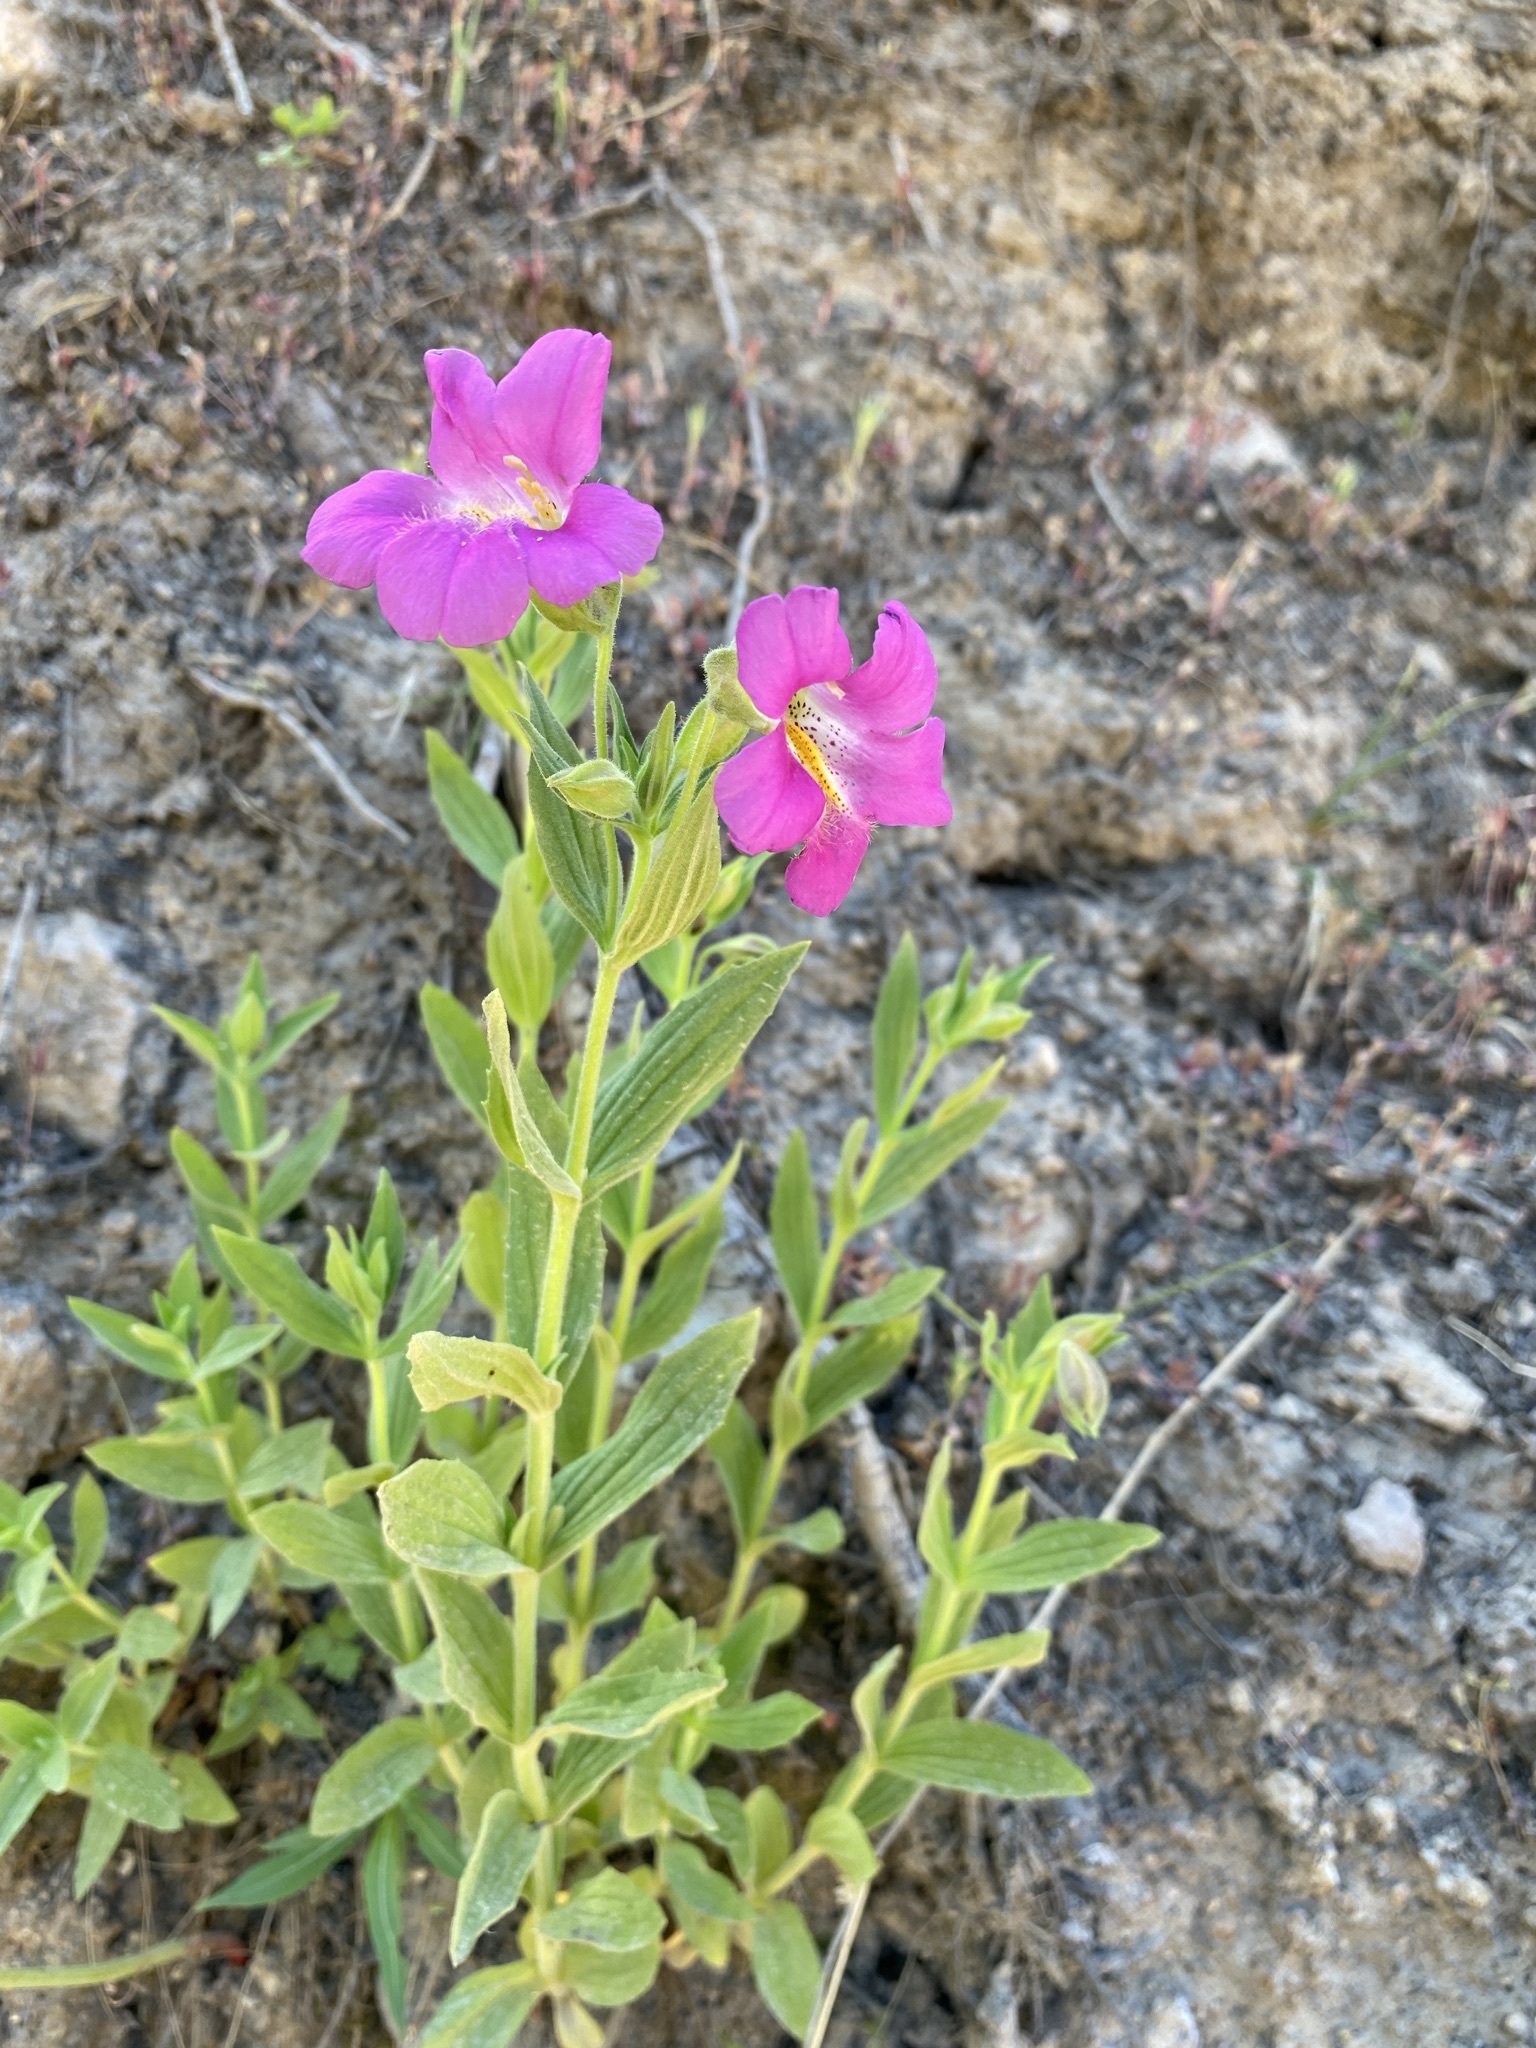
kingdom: Plantae
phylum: Tracheophyta
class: Magnoliopsida
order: Lamiales
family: Phrymaceae
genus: Erythranthe
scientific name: Erythranthe lewisii
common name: Lewis's monkey-flower
